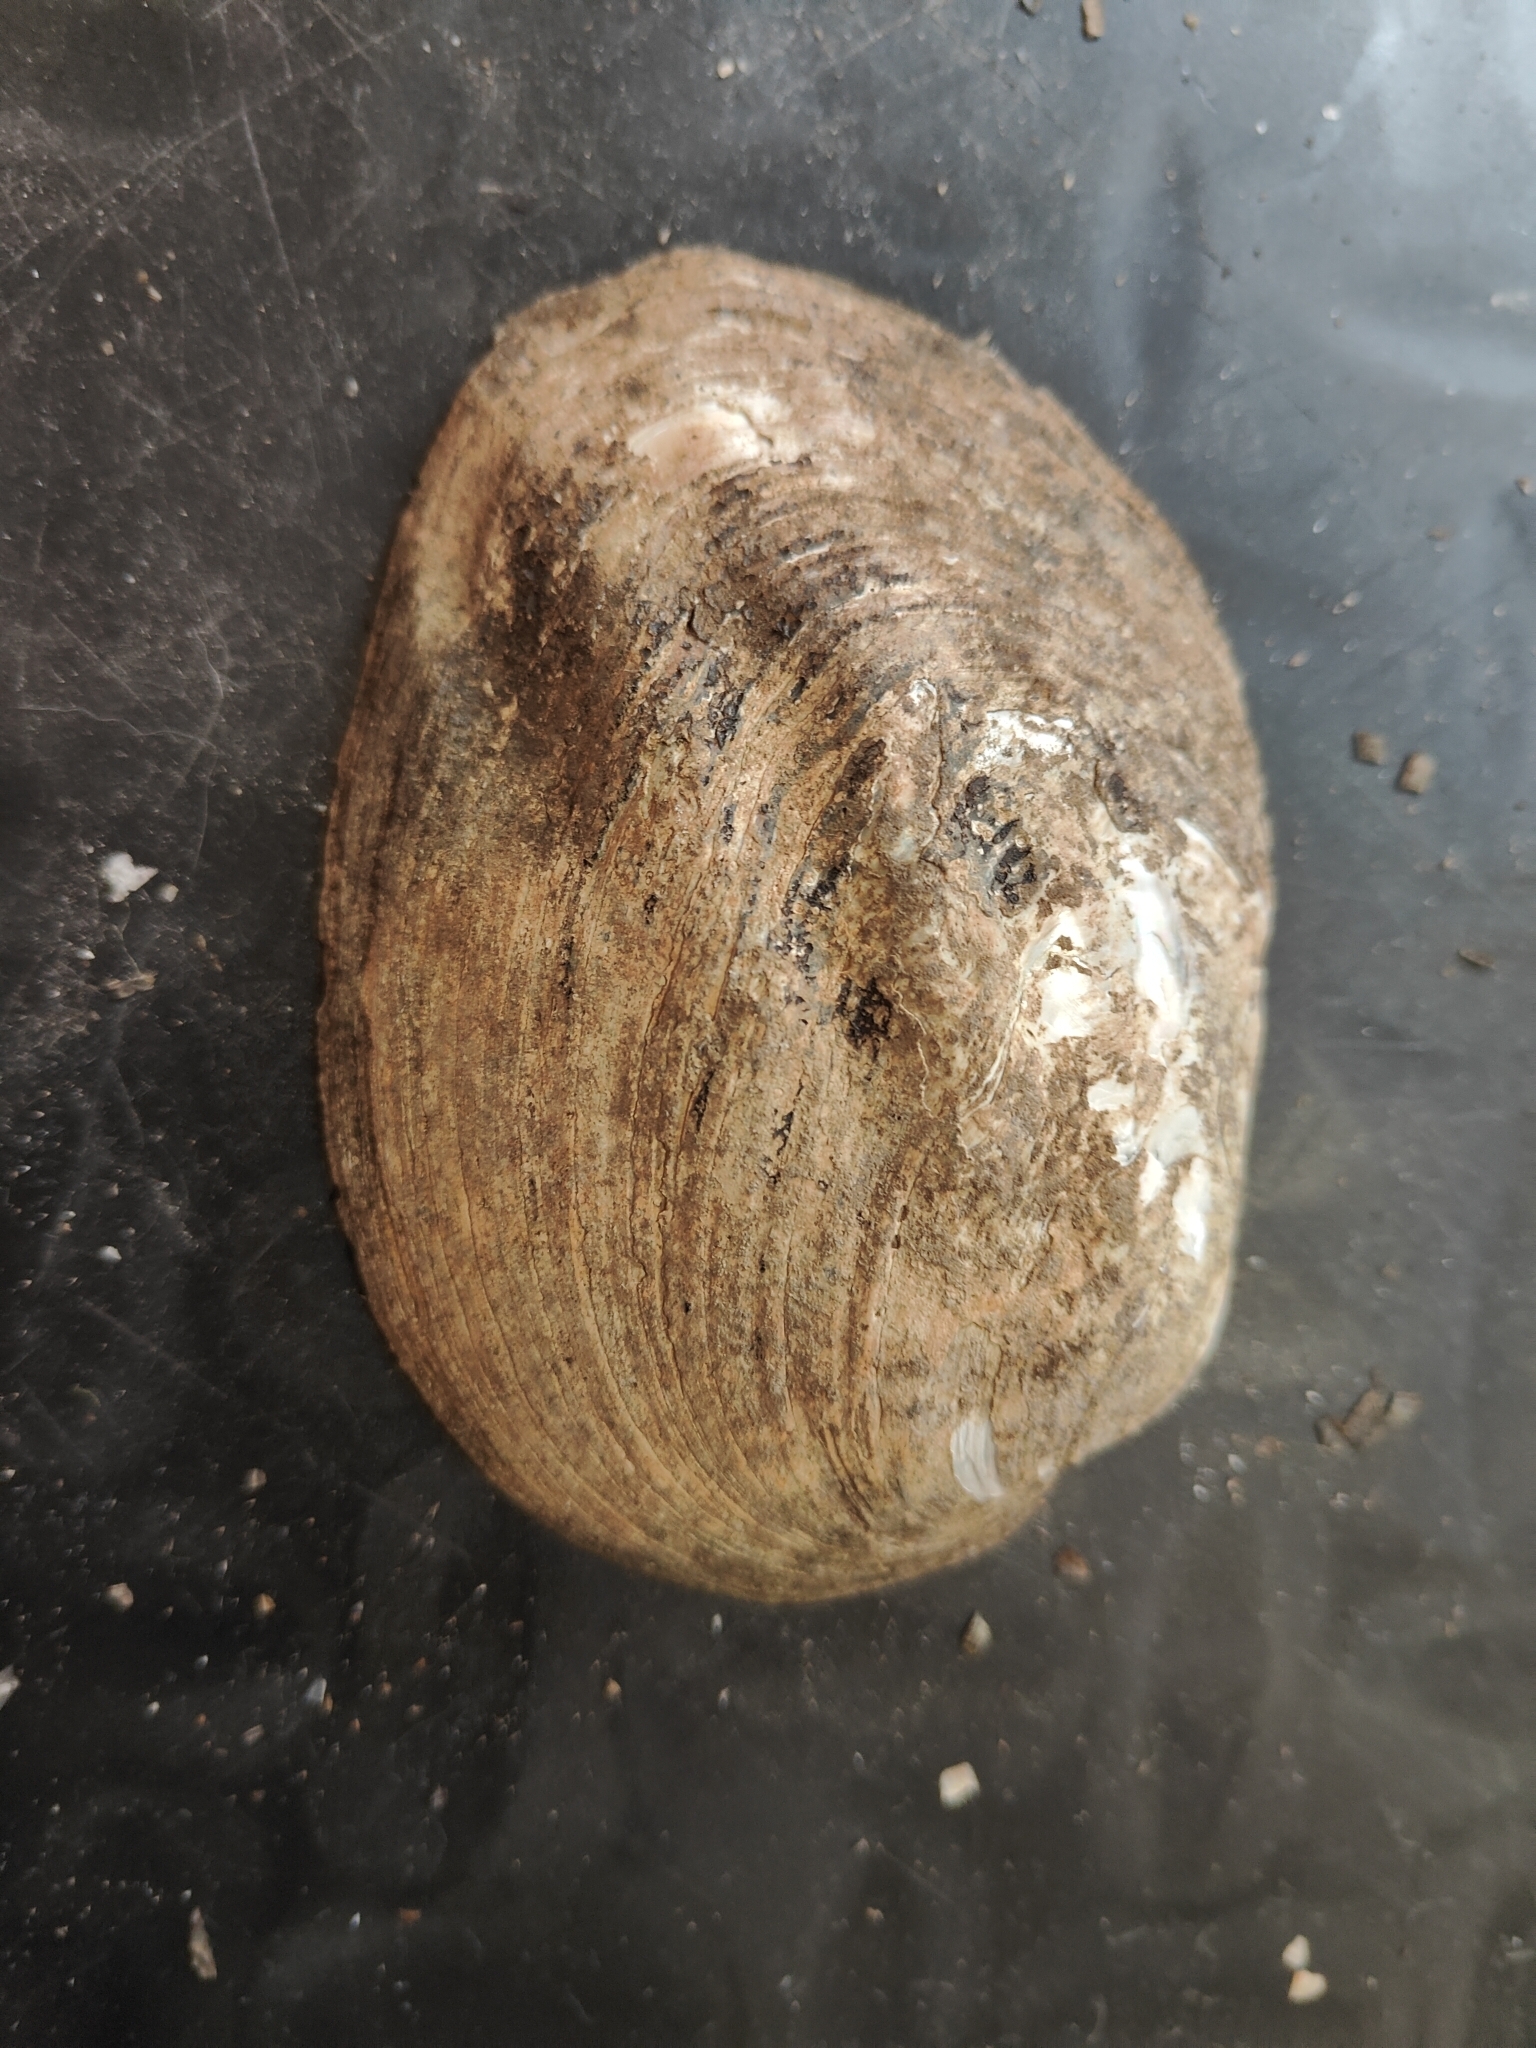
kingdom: Animalia
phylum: Mollusca
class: Bivalvia
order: Unionida
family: Unionidae
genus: Amblema
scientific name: Amblema plicata
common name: Threeridge
